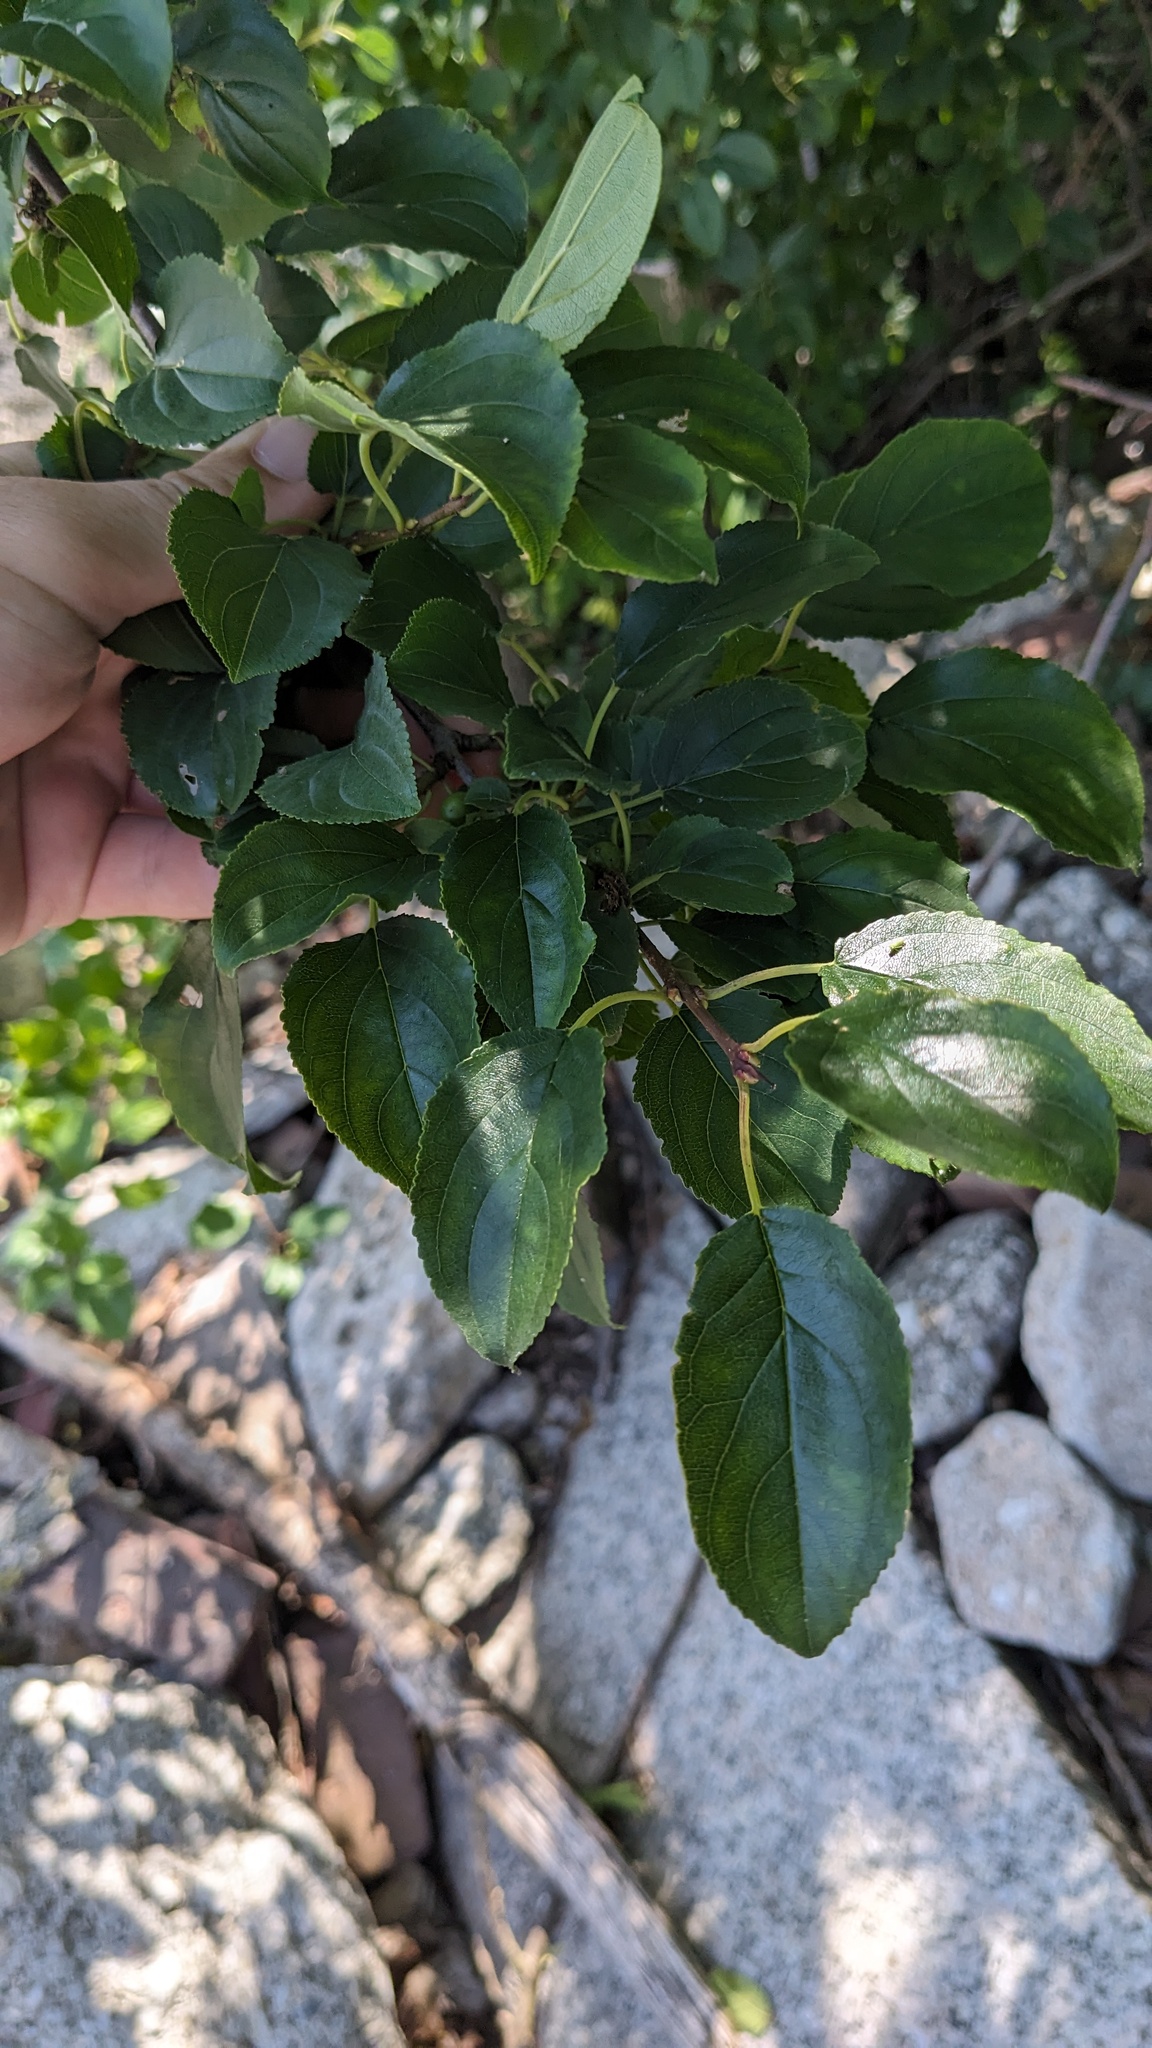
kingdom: Plantae
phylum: Tracheophyta
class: Magnoliopsida
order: Rosales
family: Rhamnaceae
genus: Rhamnus
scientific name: Rhamnus cathartica
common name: Common buckthorn
